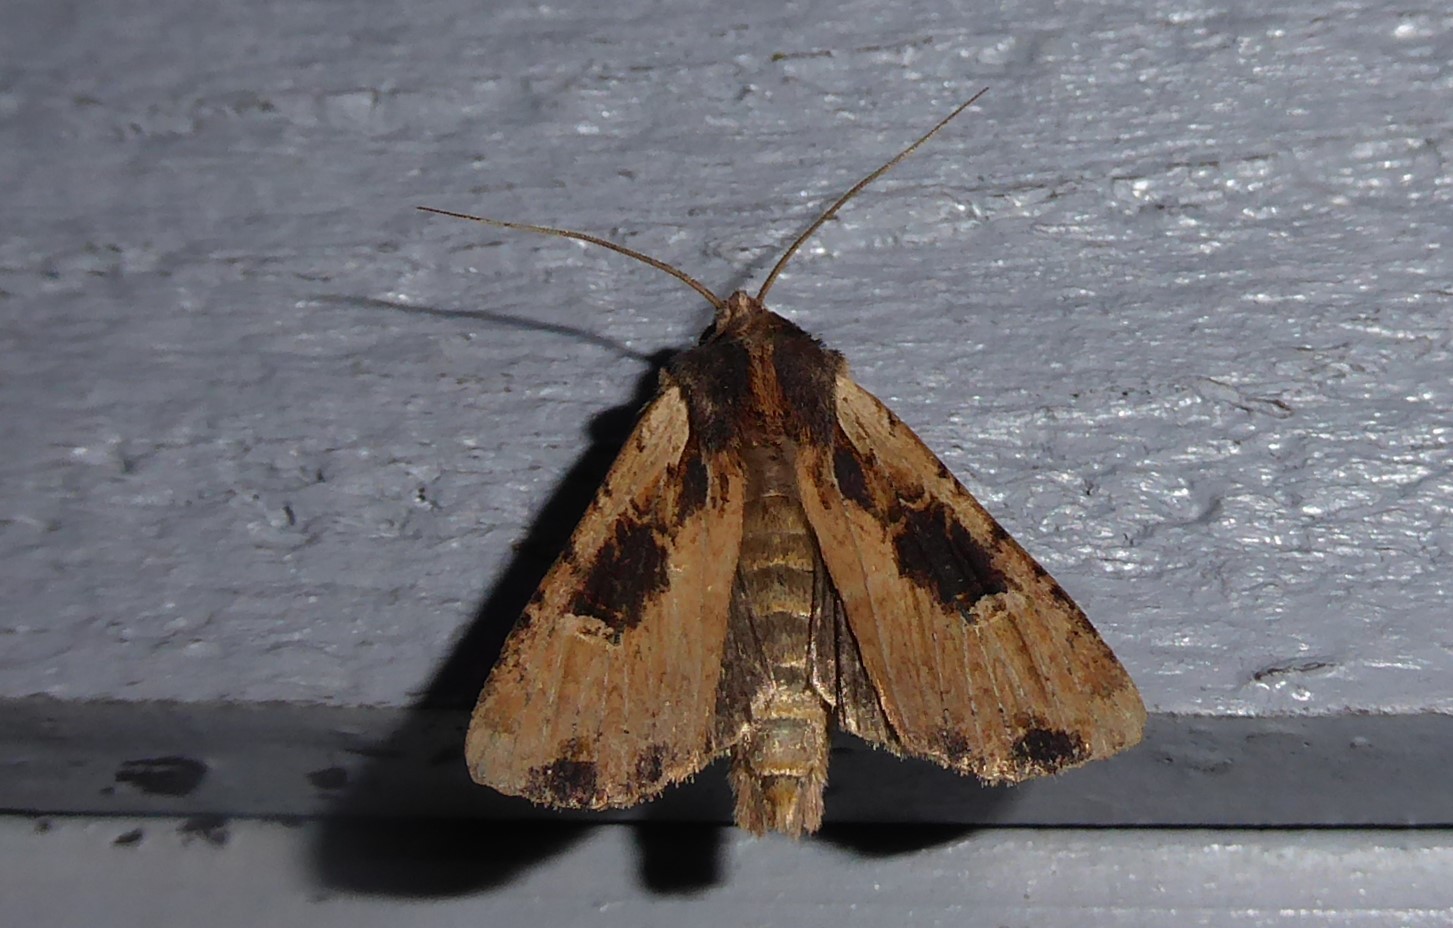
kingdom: Animalia
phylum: Arthropoda
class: Insecta
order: Lepidoptera
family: Noctuidae
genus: Ichneutica
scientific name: Ichneutica omoplaca
